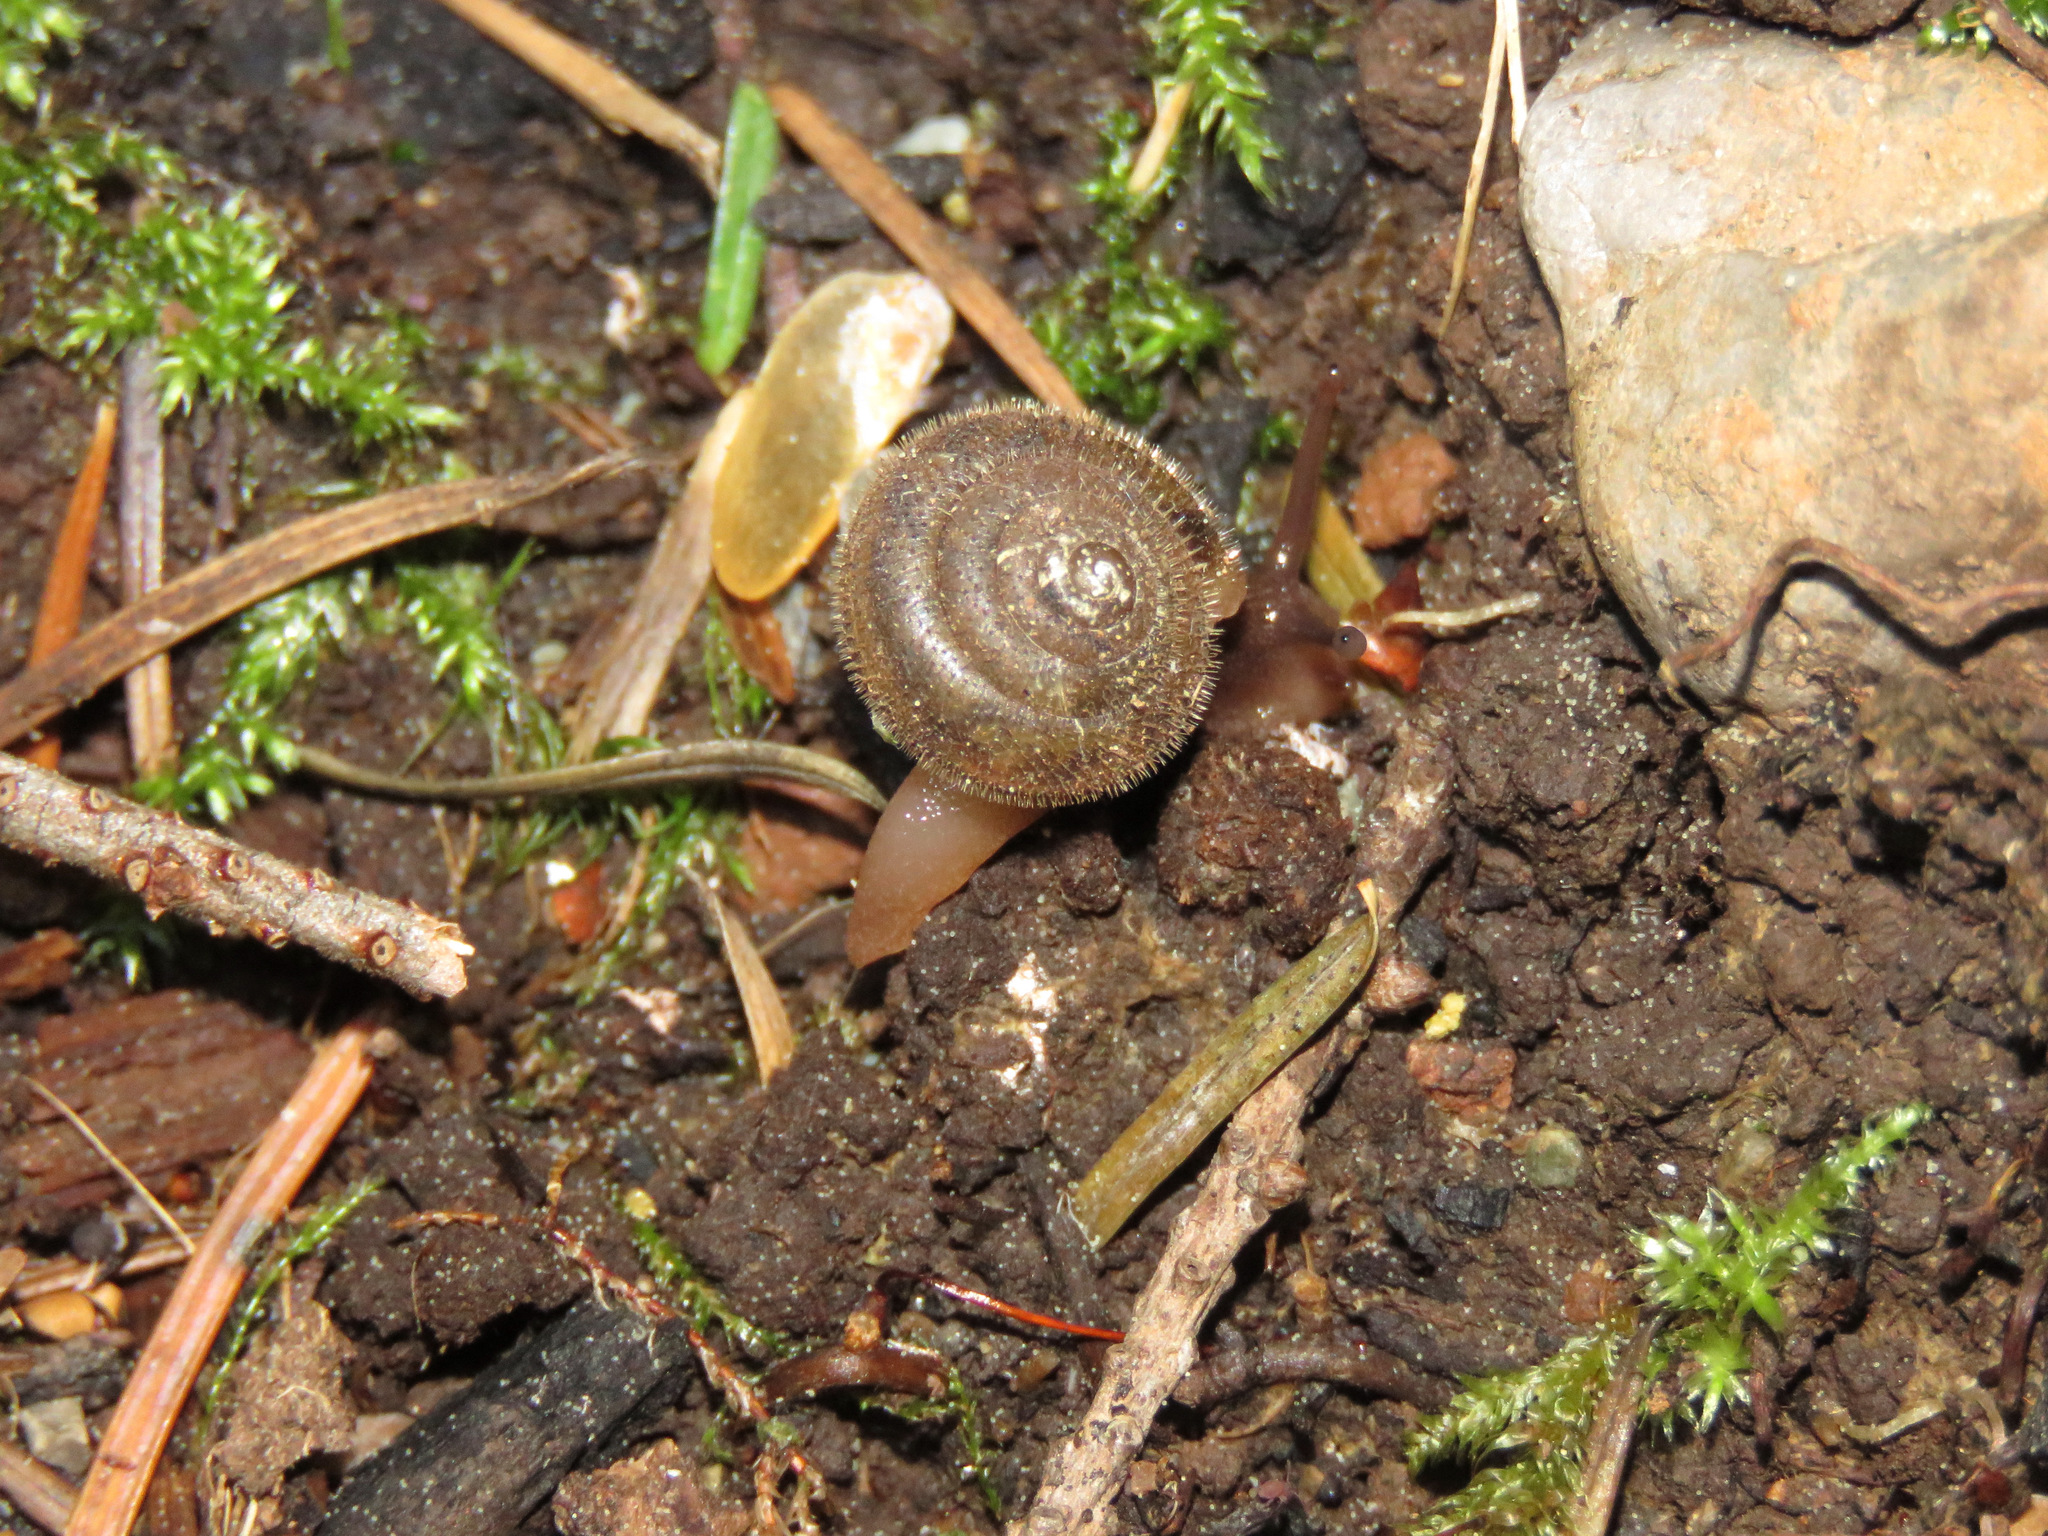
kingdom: Animalia
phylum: Mollusca
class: Gastropoda
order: Stylommatophora
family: Polygyridae
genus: Vespericola
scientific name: Vespericola columbianus
